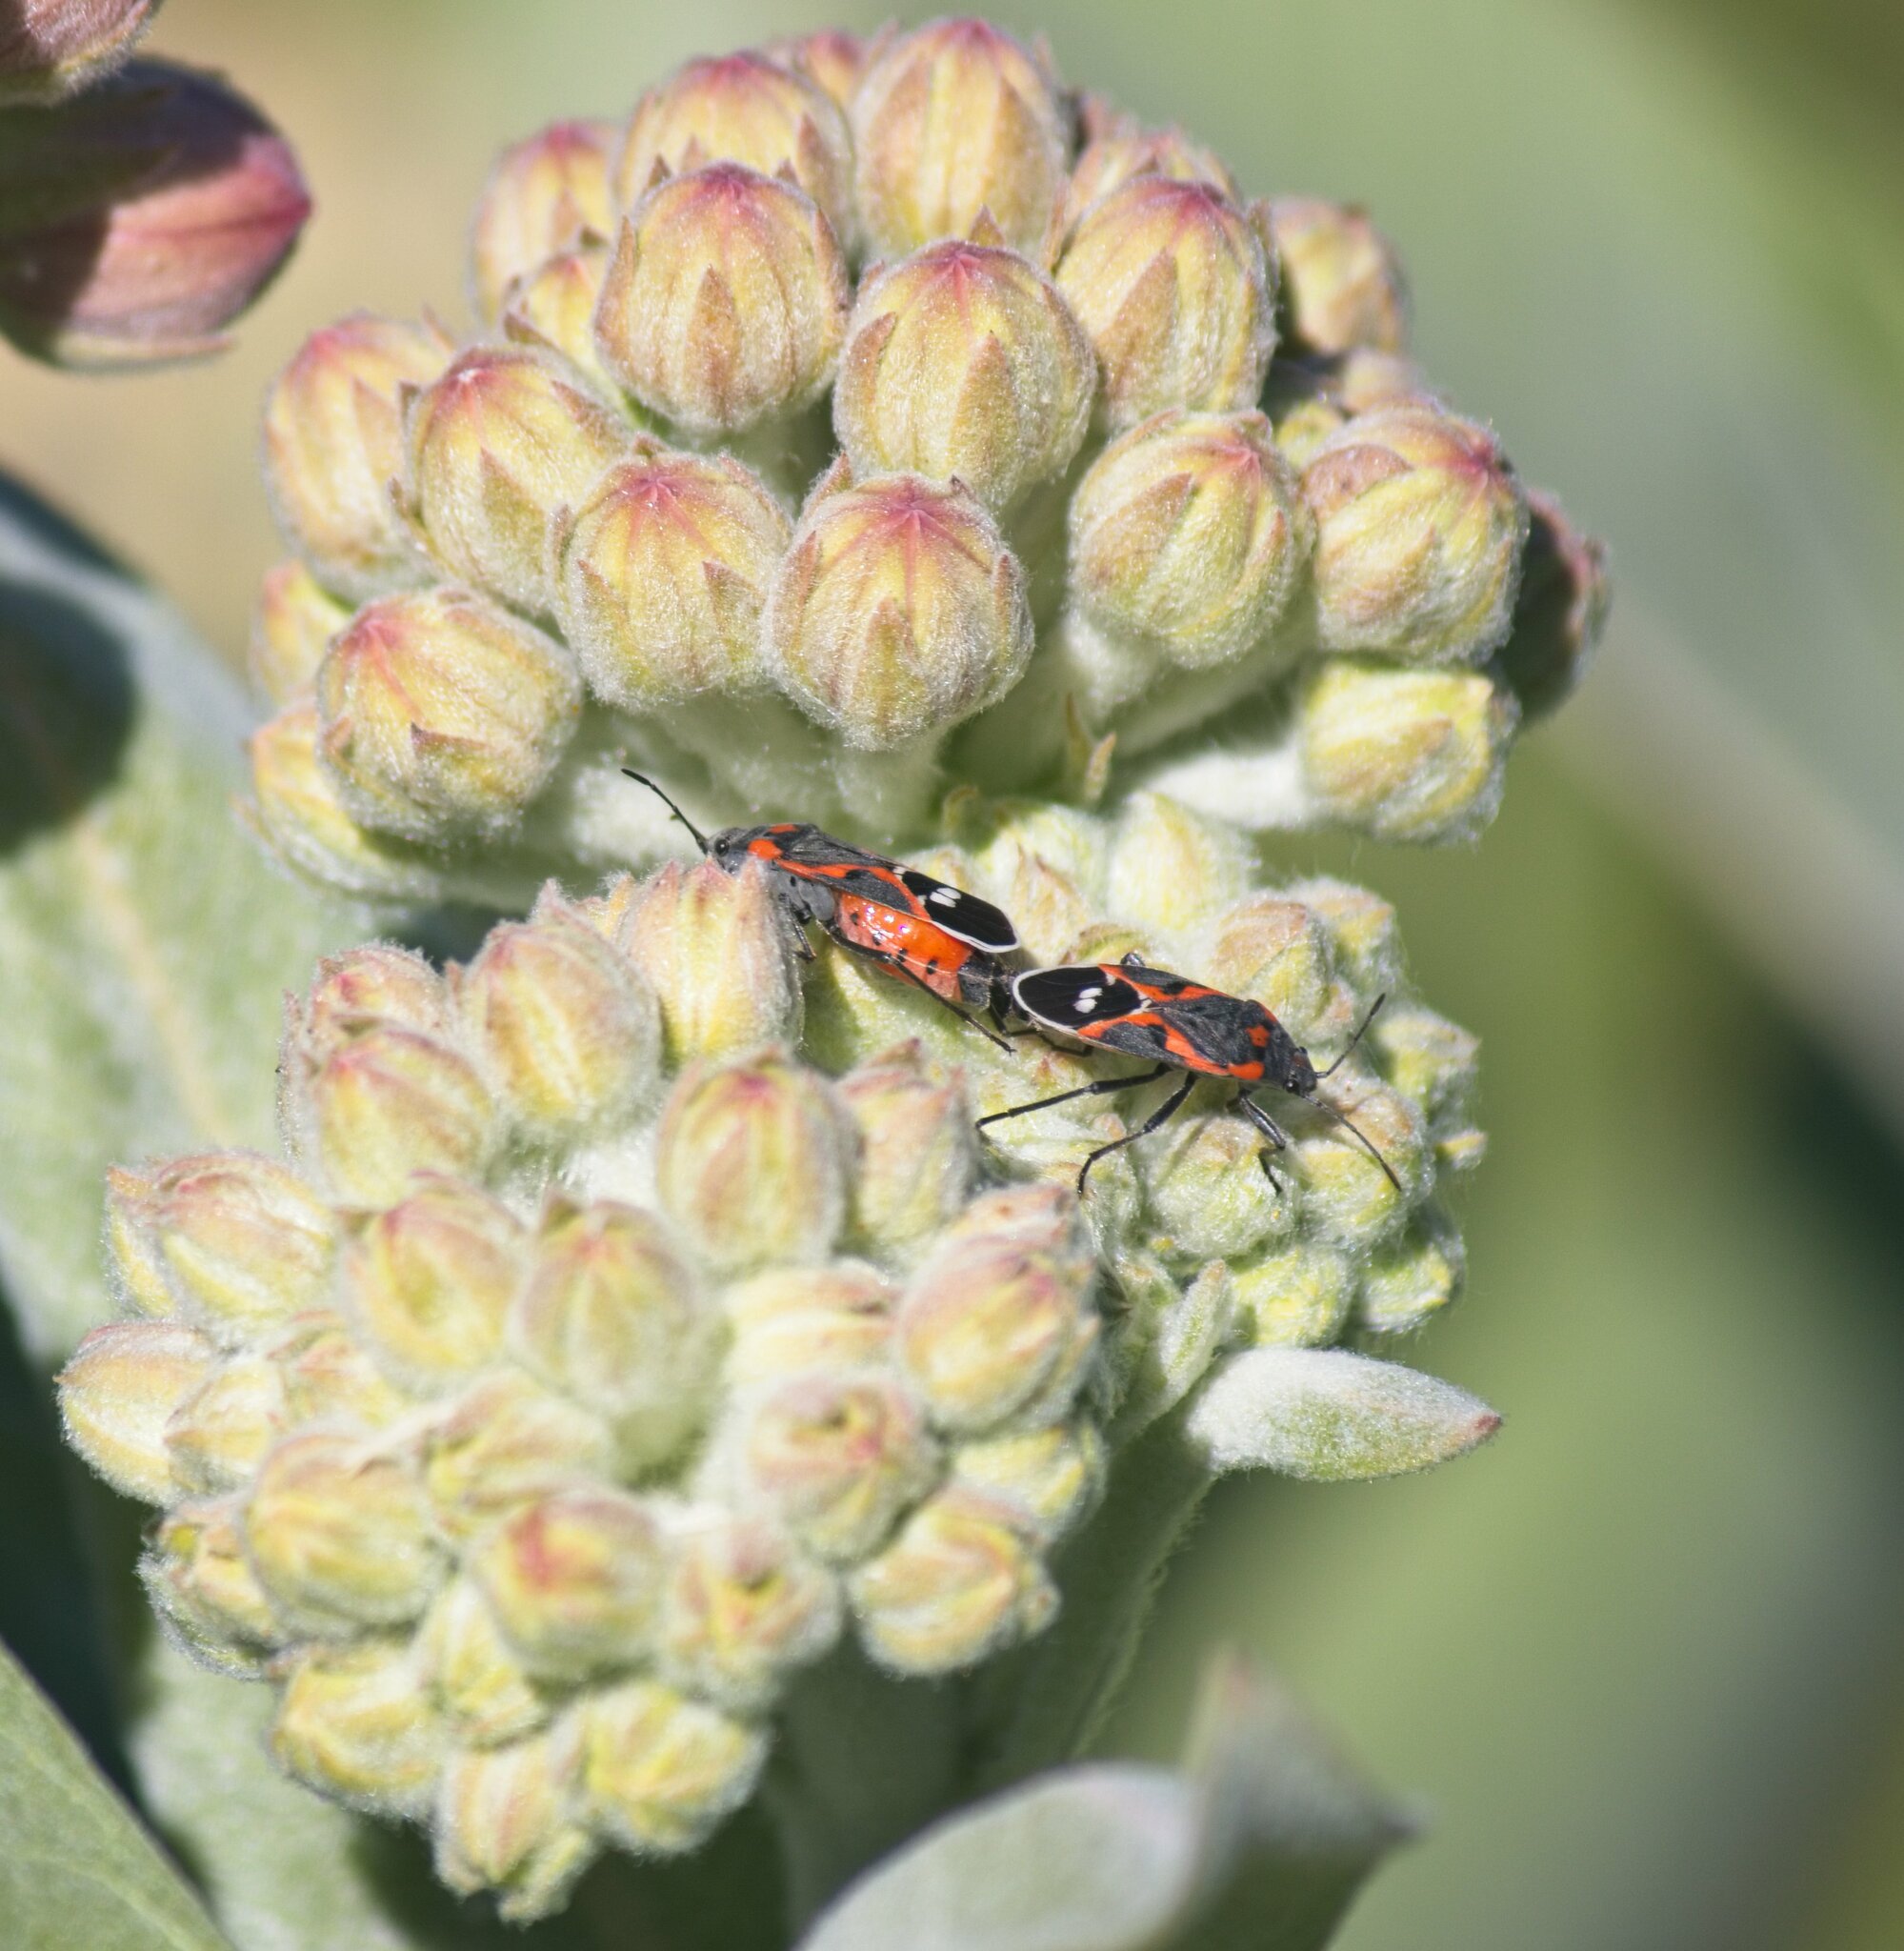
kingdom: Animalia
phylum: Arthropoda
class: Insecta
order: Hemiptera
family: Lygaeidae
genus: Lygaeus
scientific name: Lygaeus kalmii
